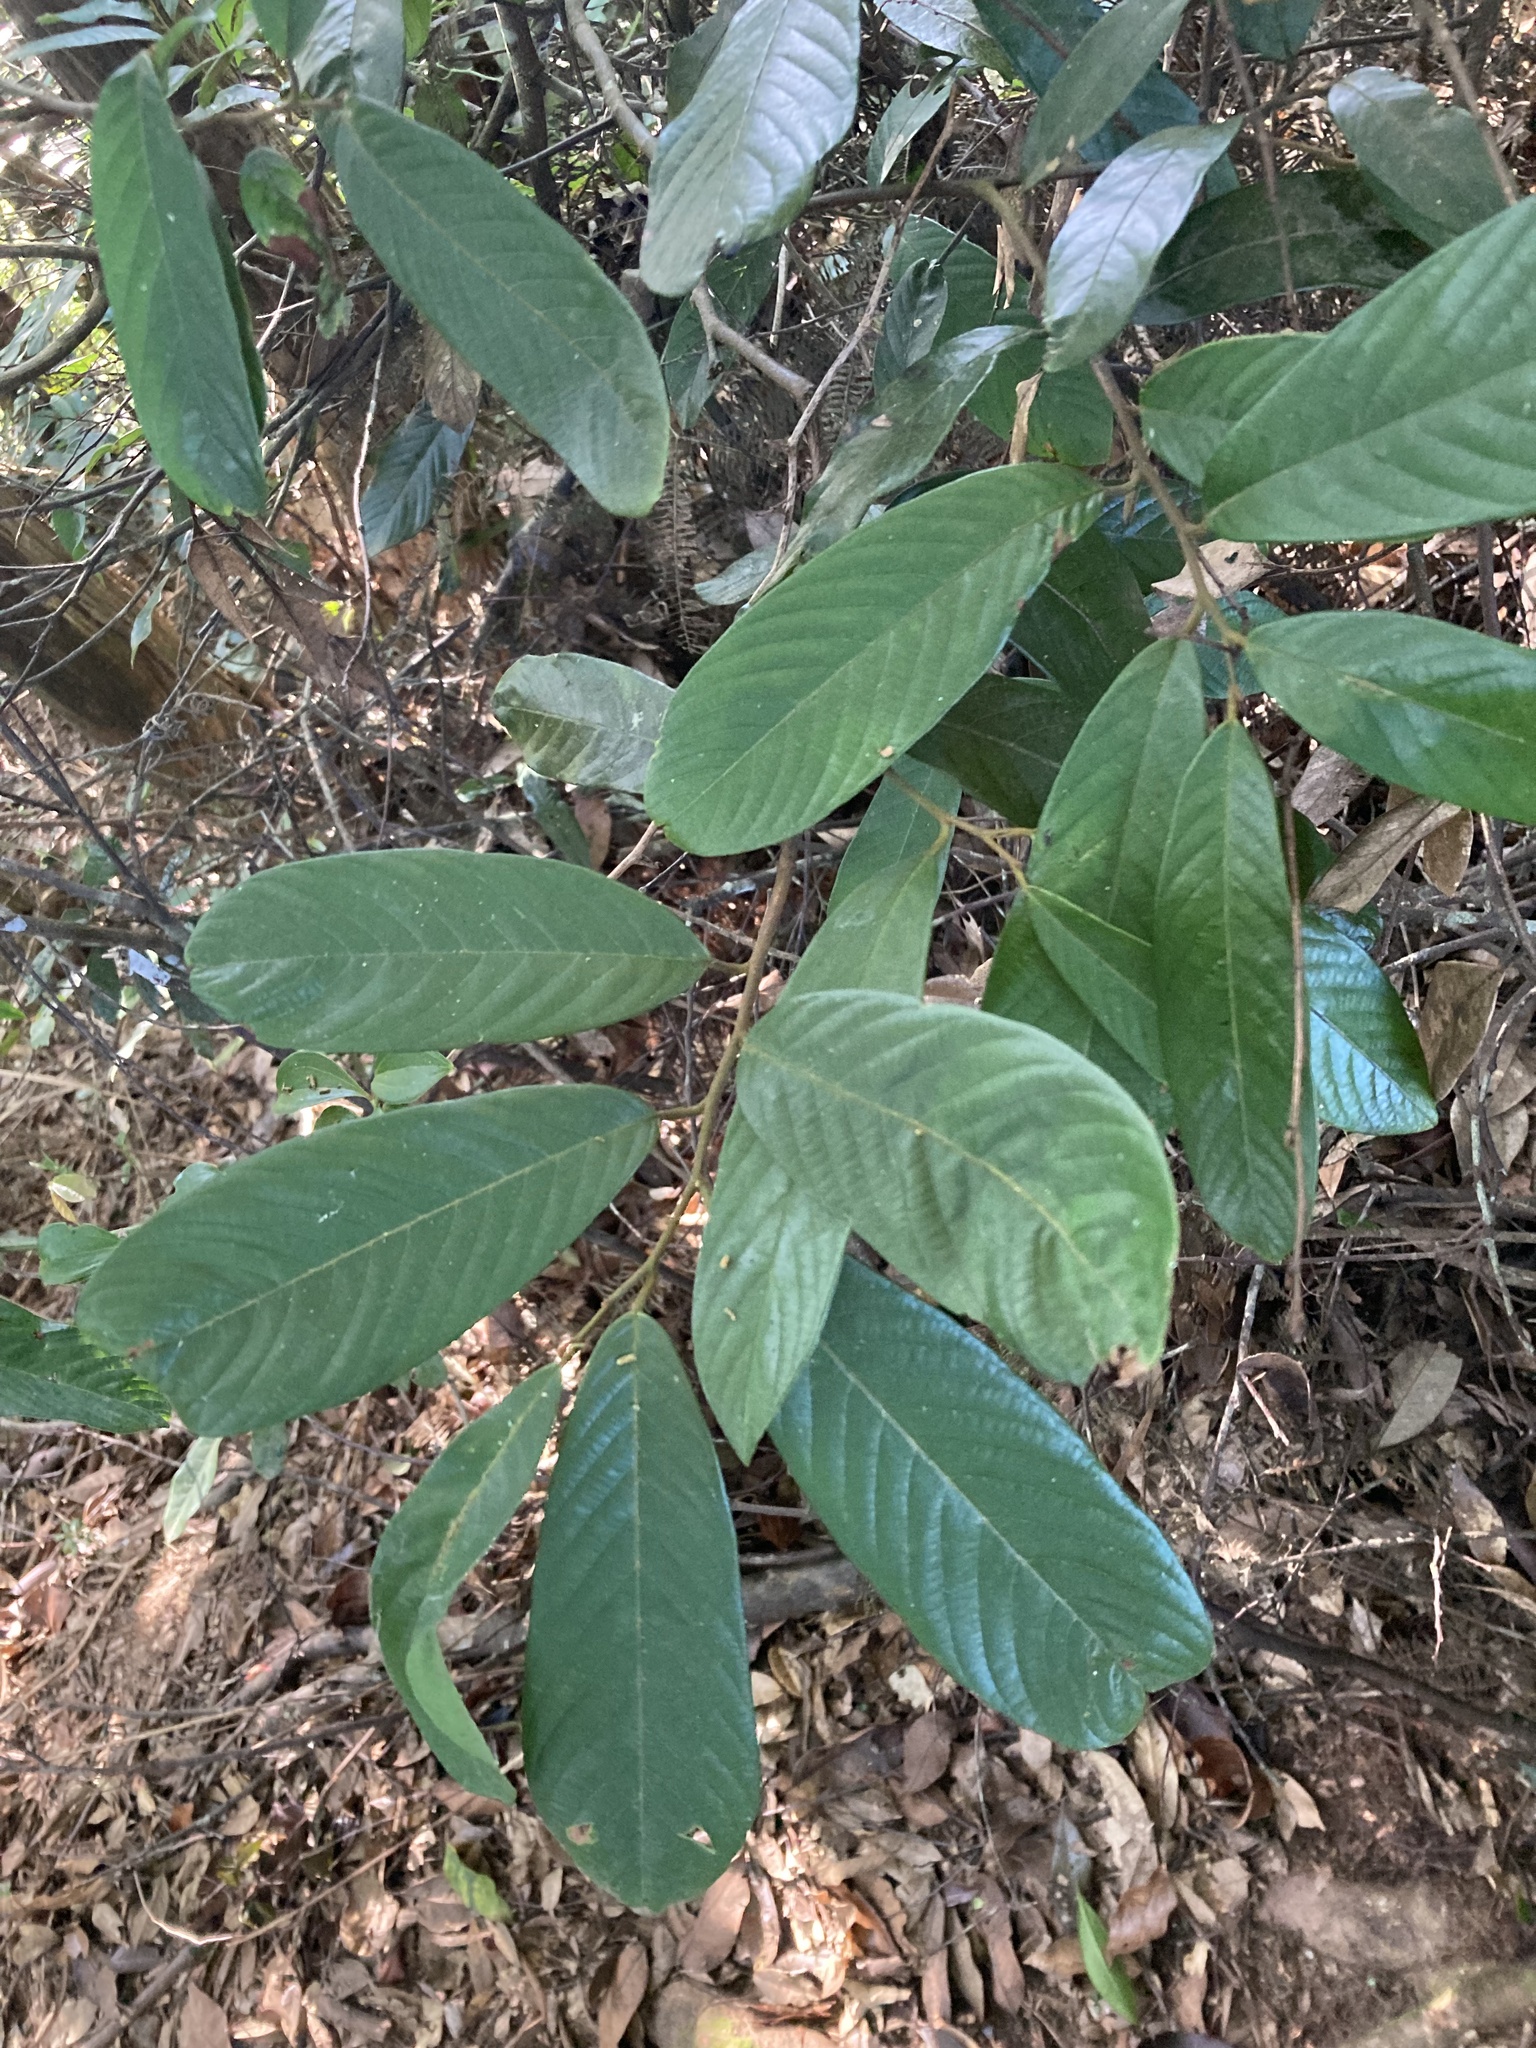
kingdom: Plantae
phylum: Tracheophyta
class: Magnoliopsida
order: Magnoliales
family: Annonaceae
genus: Fissistigma
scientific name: Fissistigma oldhamii
